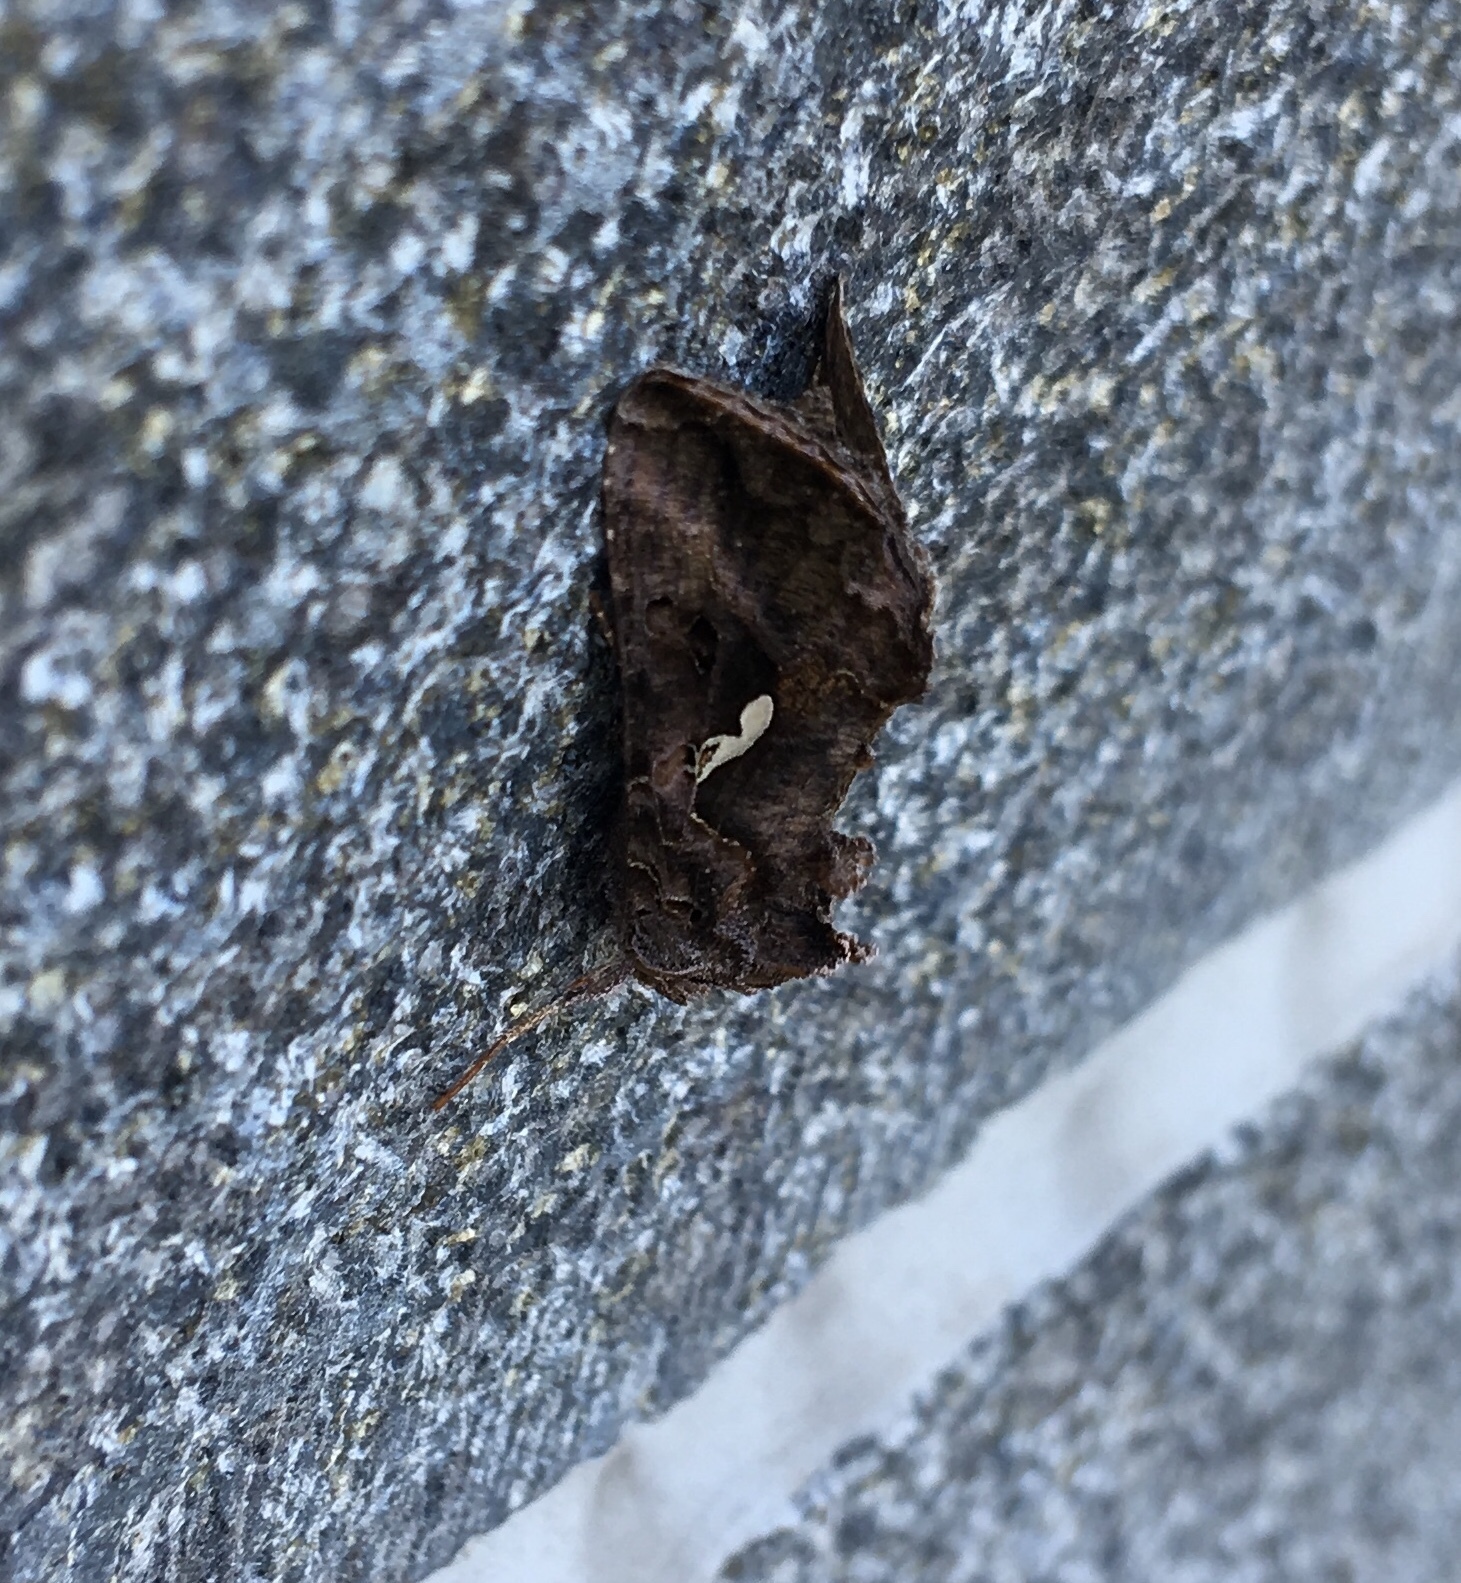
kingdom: Animalia
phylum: Arthropoda
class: Insecta
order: Lepidoptera
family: Noctuidae
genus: Autographa
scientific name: Autographa precationis
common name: Common looper moth
